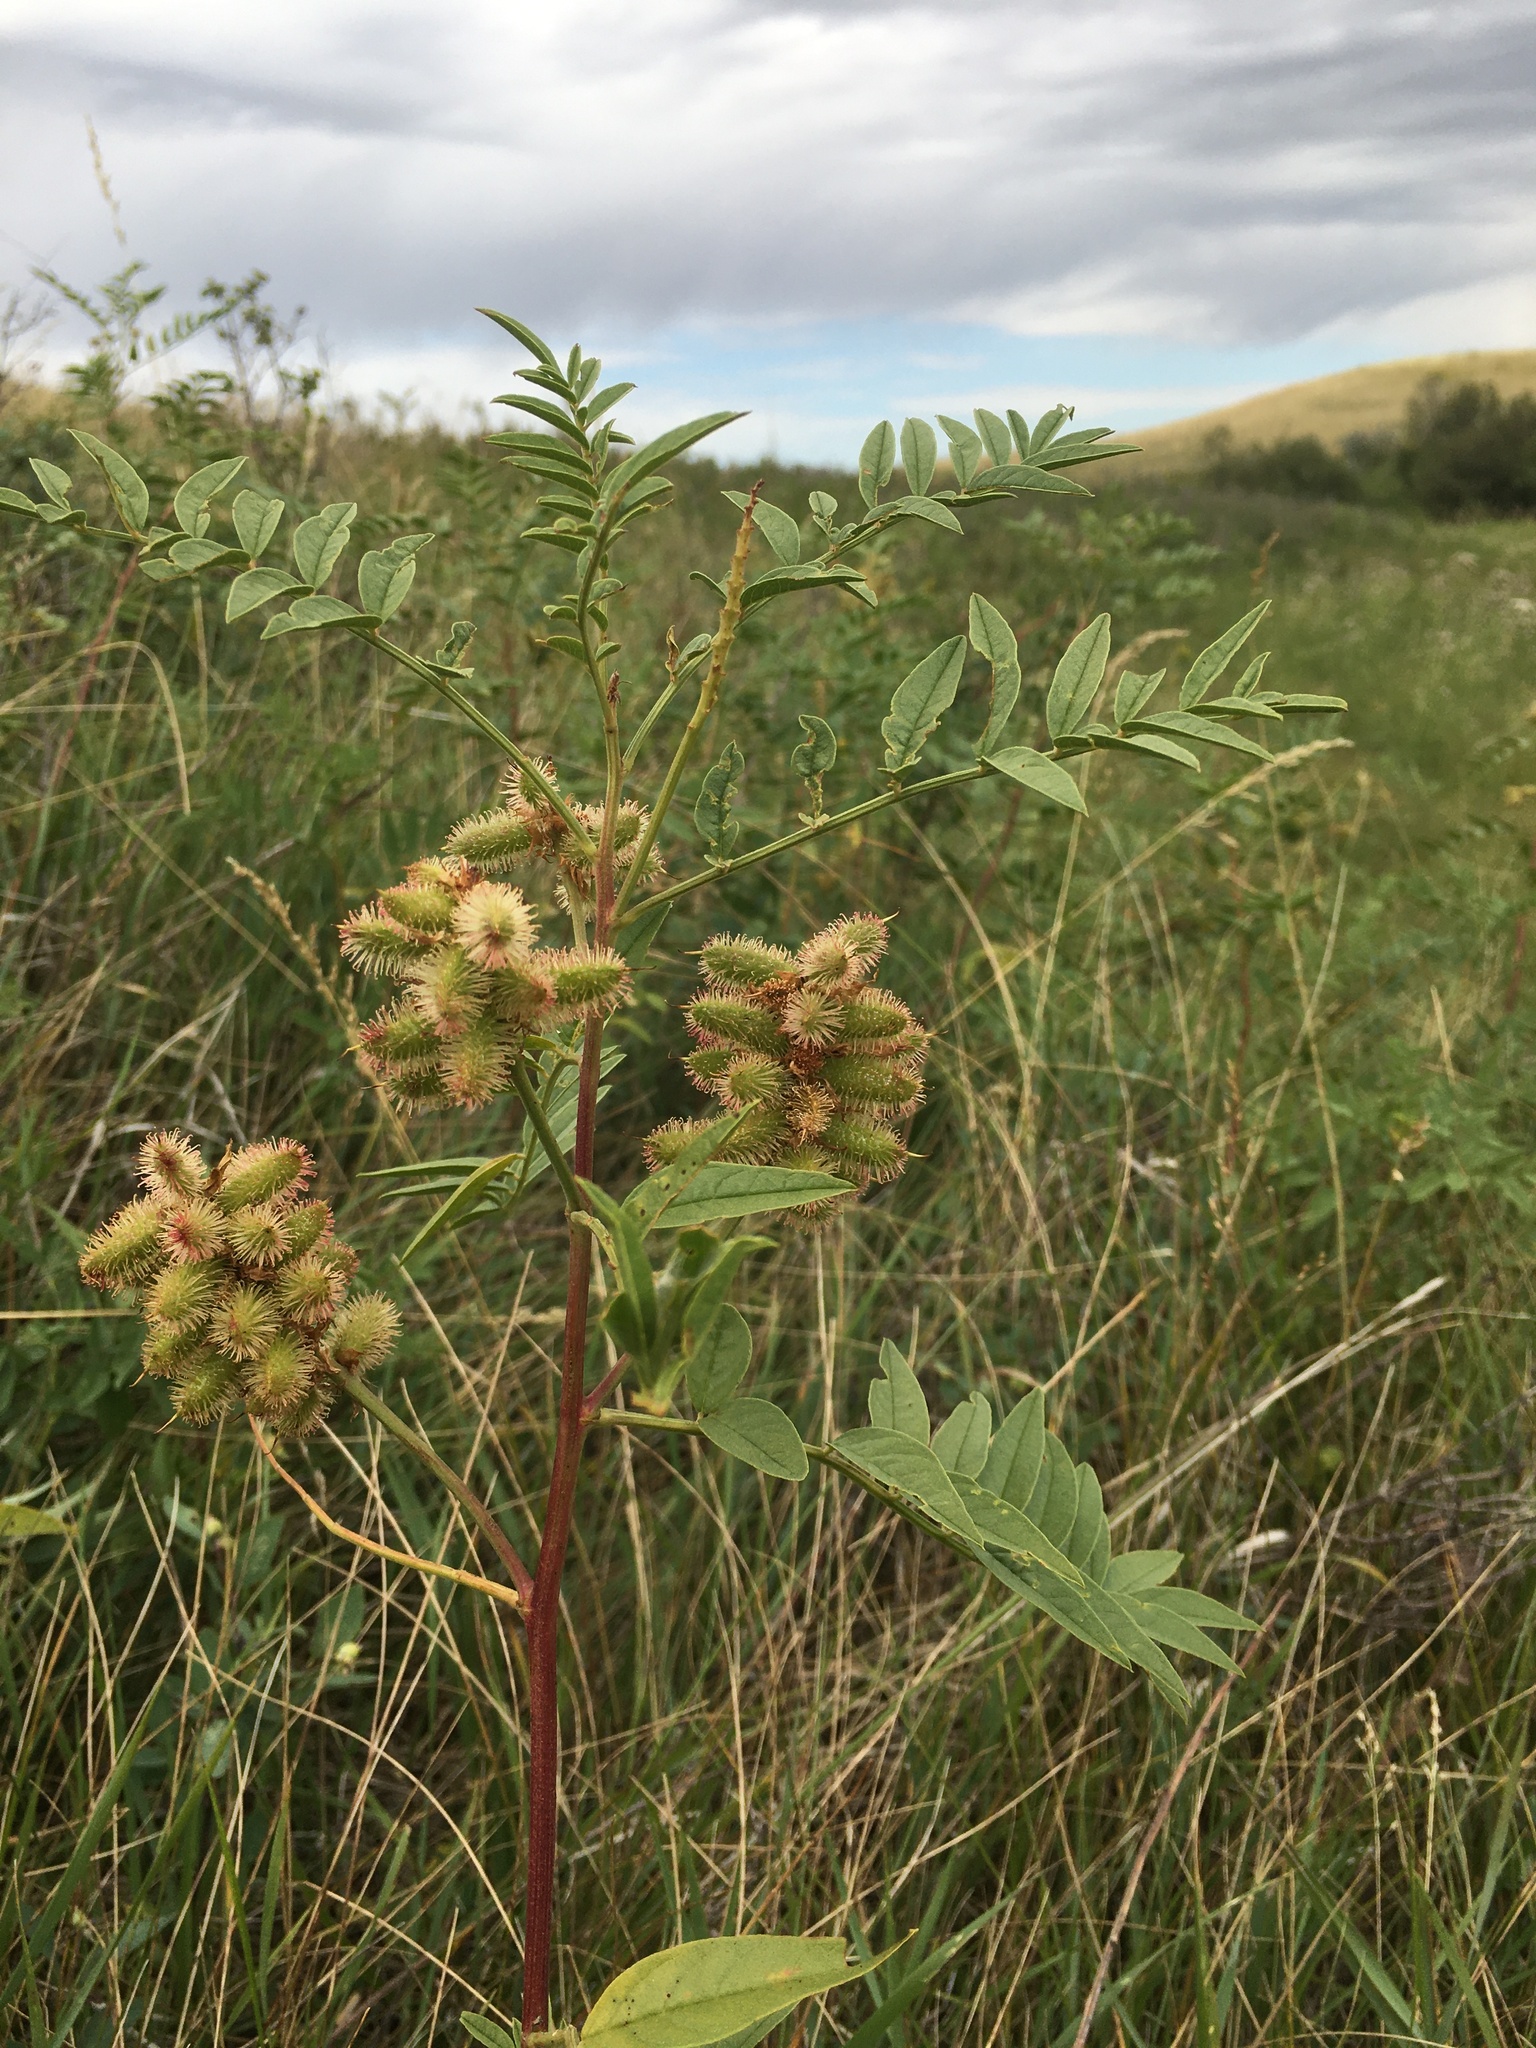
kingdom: Plantae
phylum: Tracheophyta
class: Magnoliopsida
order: Fabales
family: Fabaceae
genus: Glycyrrhiza
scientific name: Glycyrrhiza lepidota
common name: American liquorice
